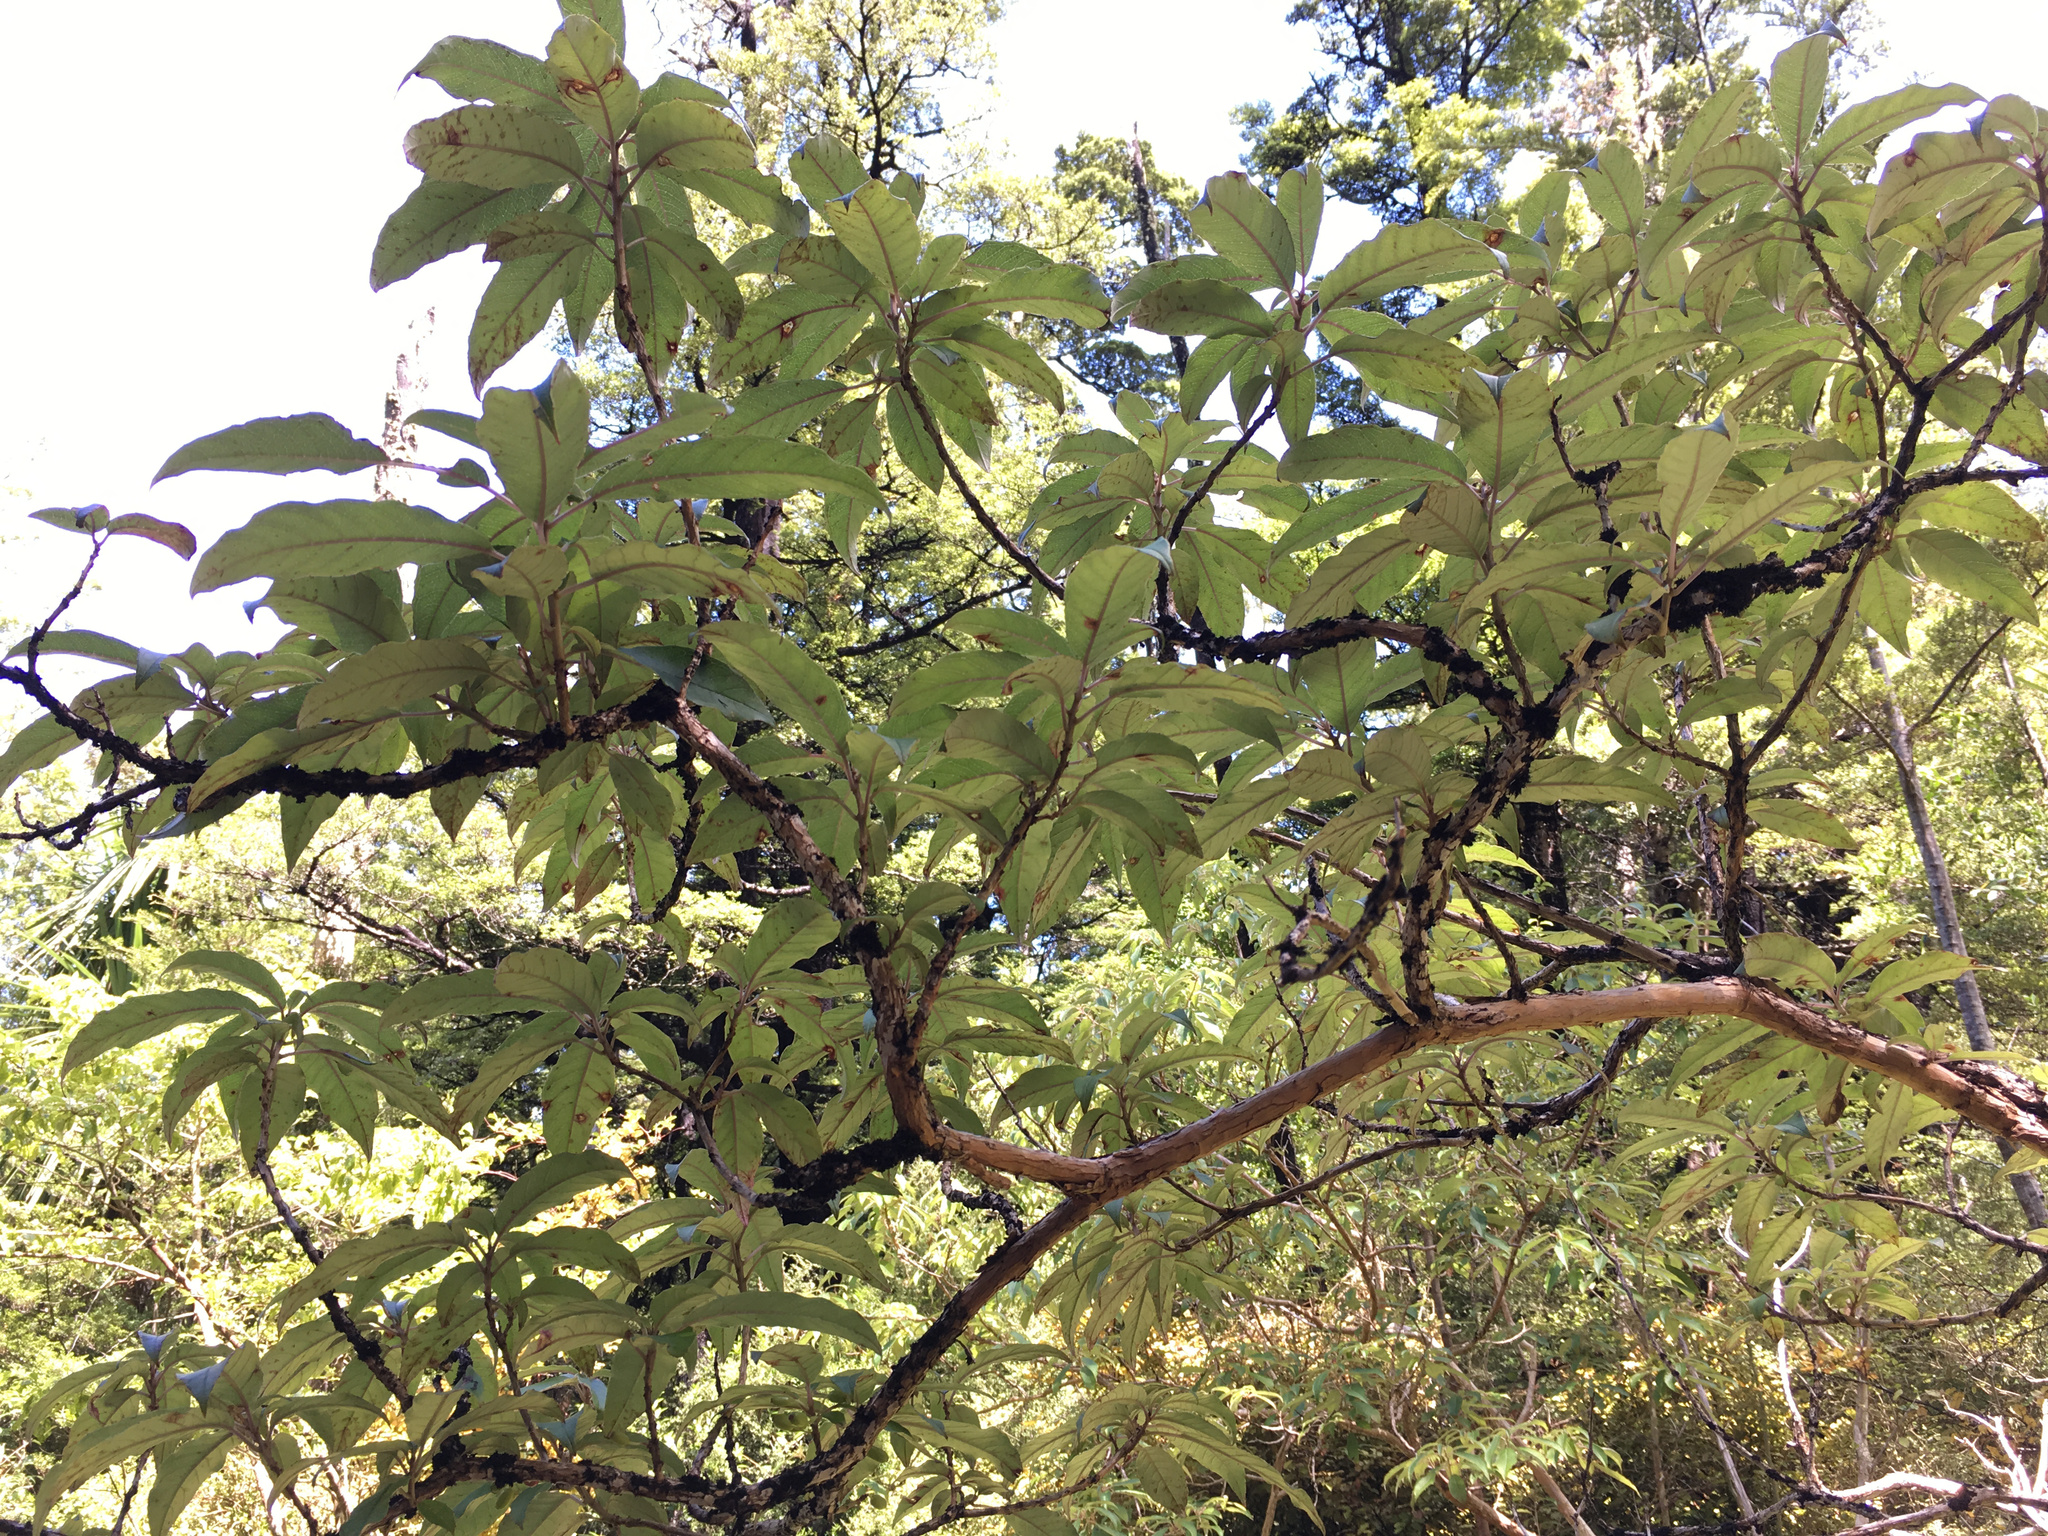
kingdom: Plantae
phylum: Tracheophyta
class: Magnoliopsida
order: Myrtales
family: Onagraceae
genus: Fuchsia
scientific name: Fuchsia excorticata
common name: Tree fuchsia
